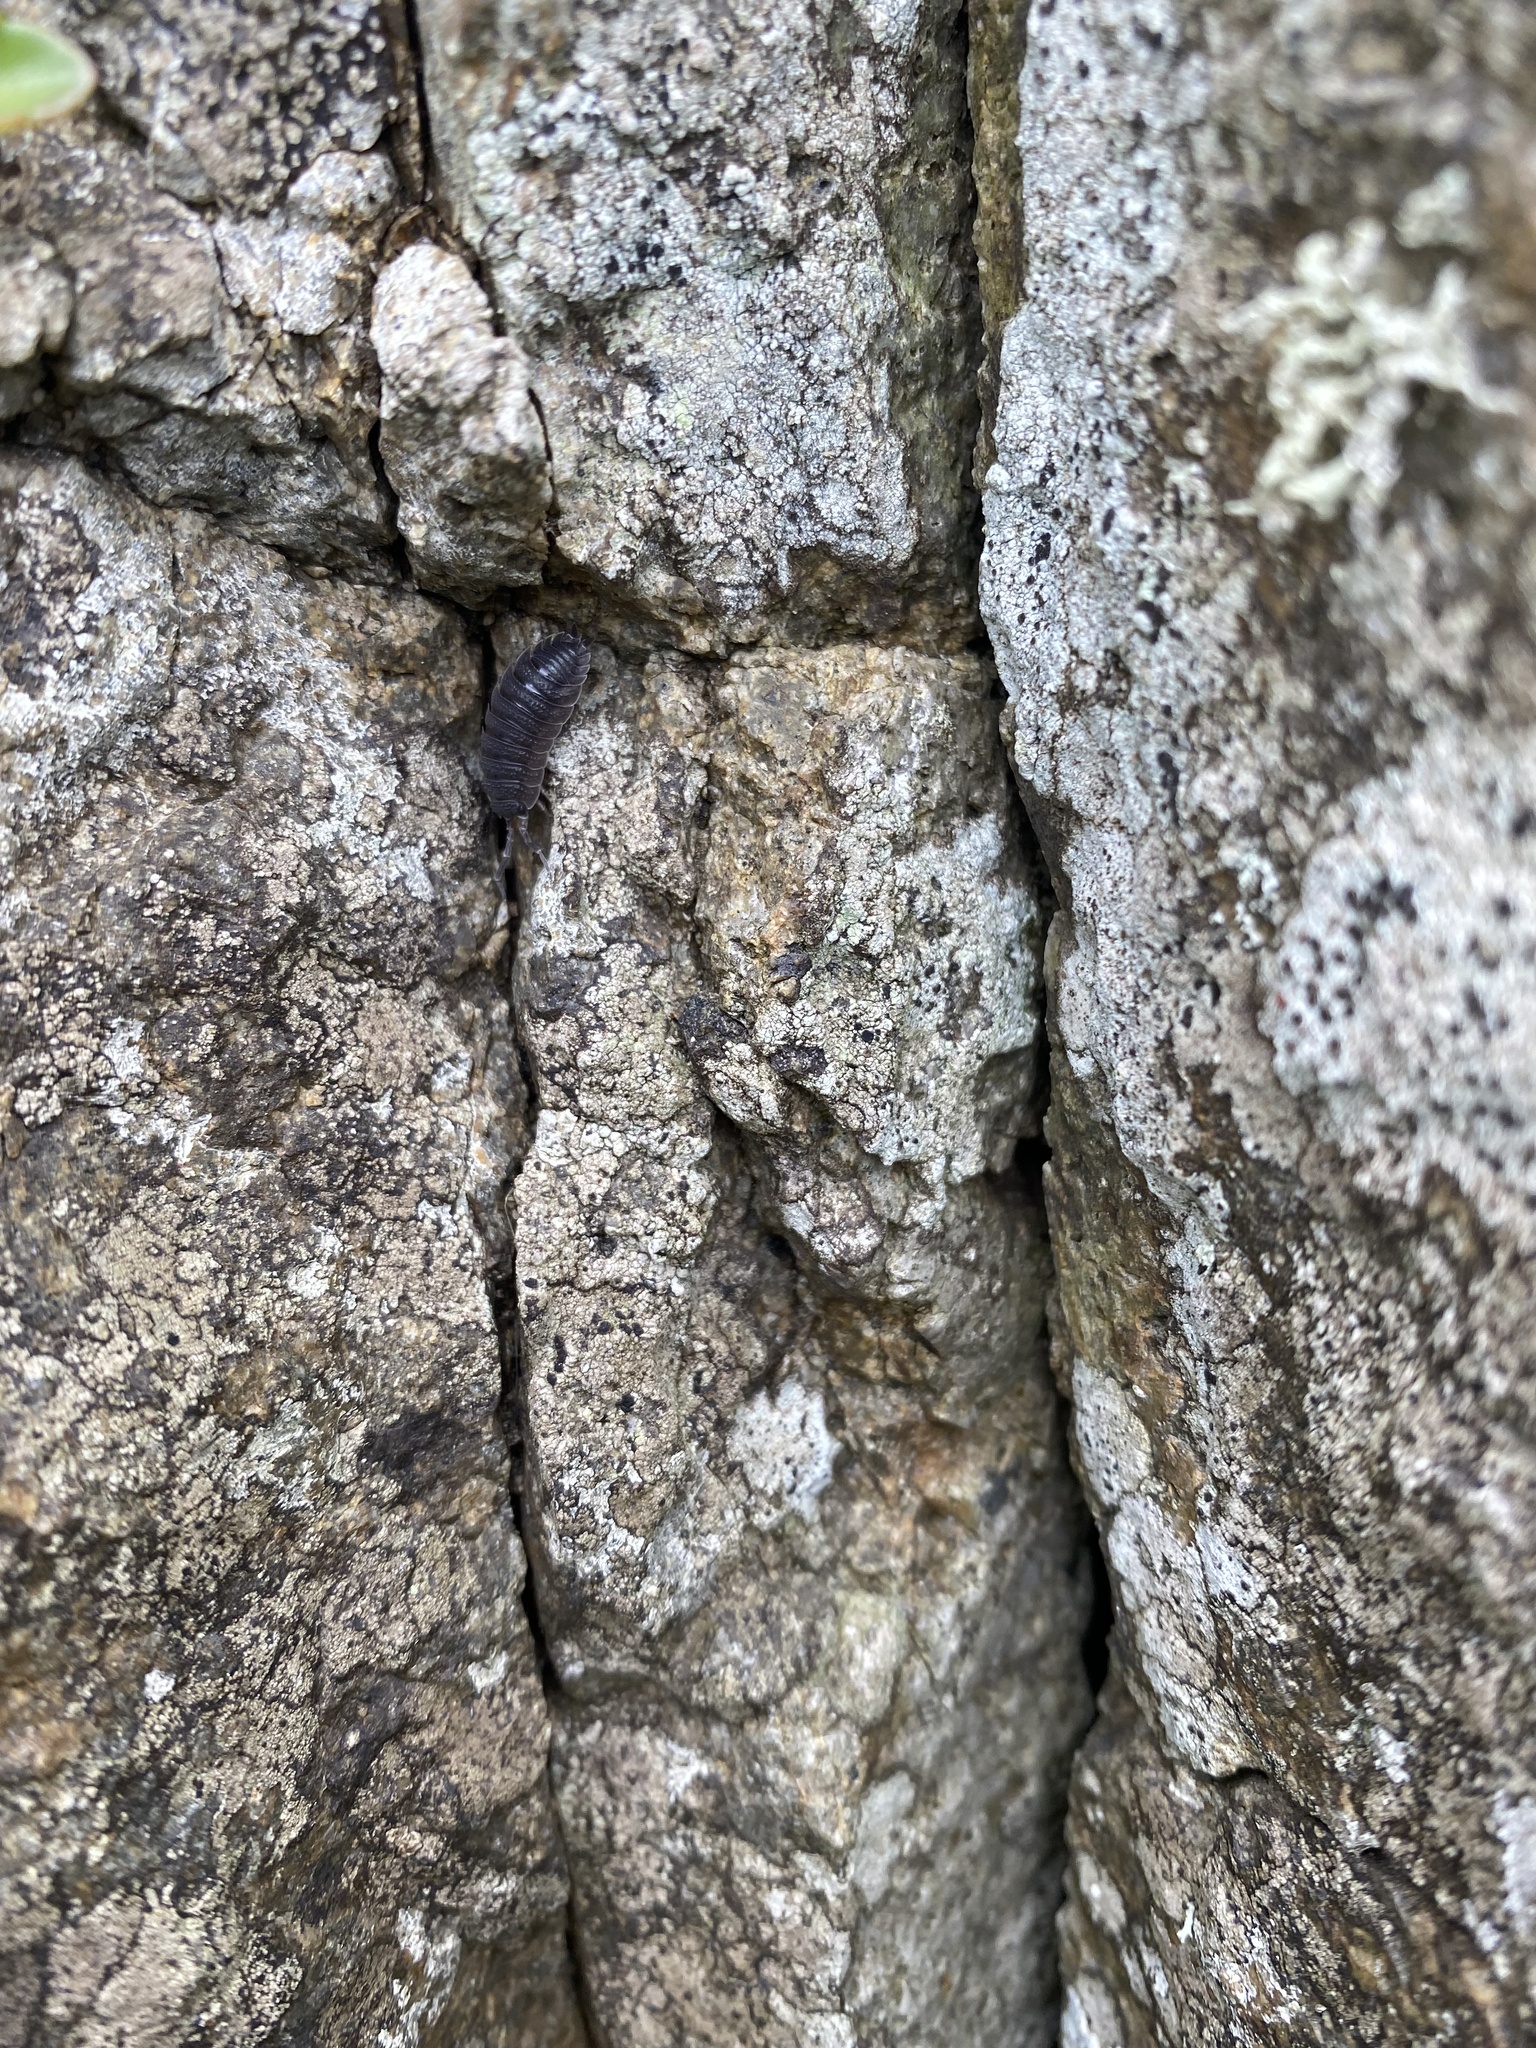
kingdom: Animalia
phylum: Arthropoda
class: Malacostraca
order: Isopoda
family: Porcellionidae
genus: Porcellio
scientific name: Porcellio scaber
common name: Common rough woodlouse
